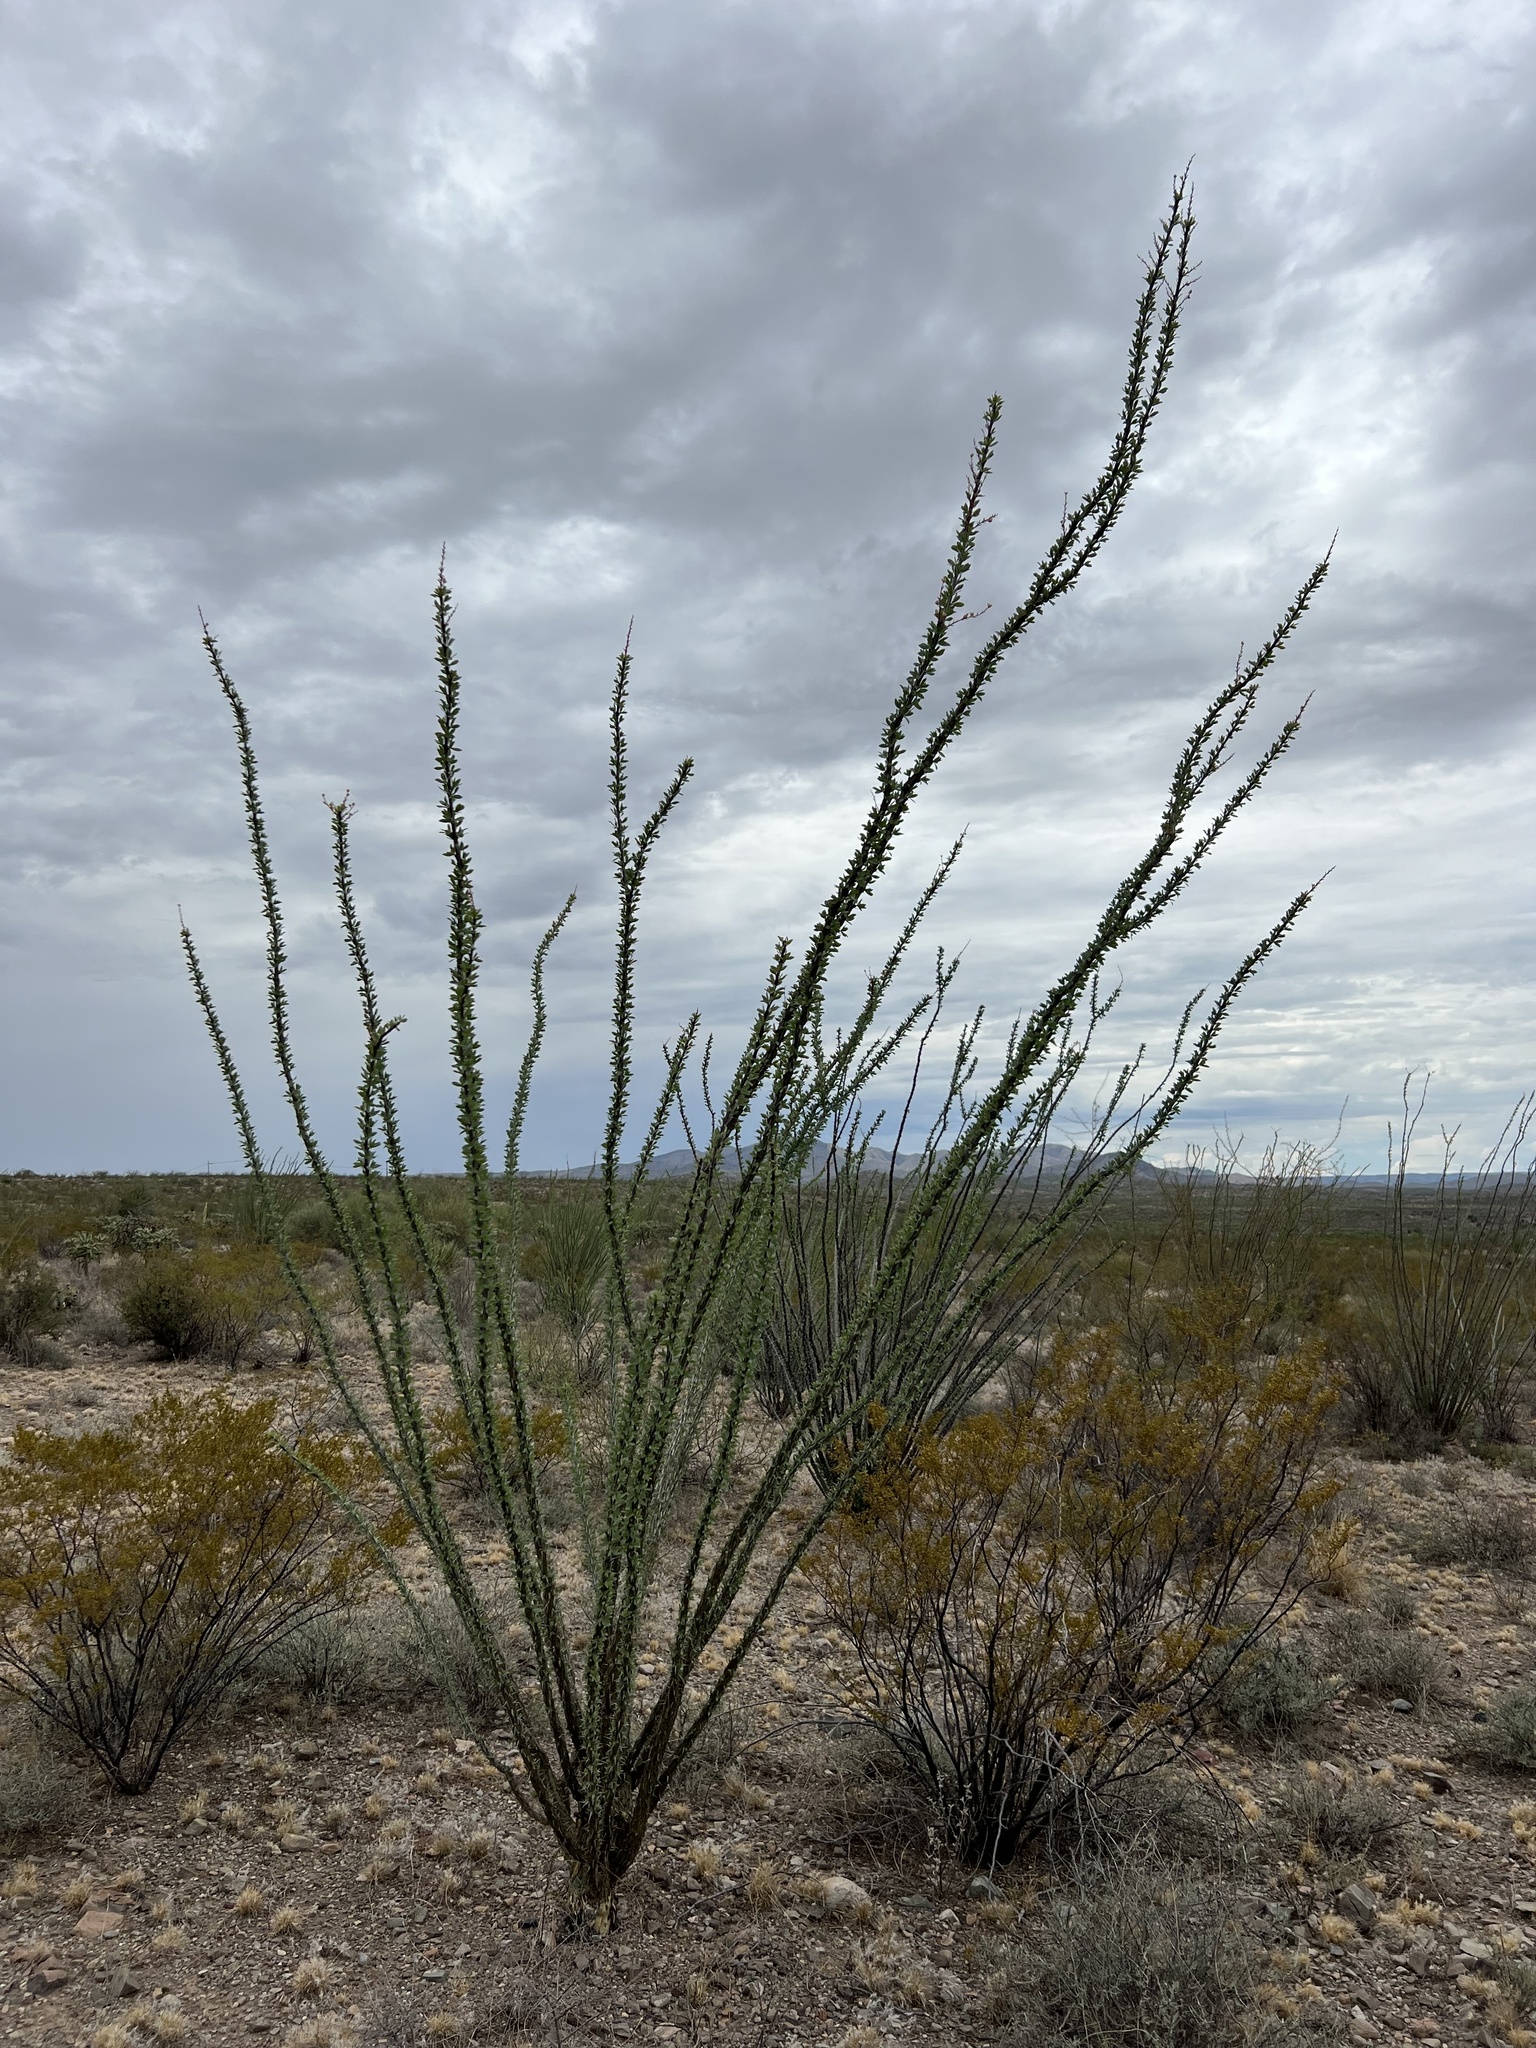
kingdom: Plantae
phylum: Tracheophyta
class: Magnoliopsida
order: Ericales
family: Fouquieriaceae
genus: Fouquieria
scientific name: Fouquieria splendens
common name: Vine-cactus
